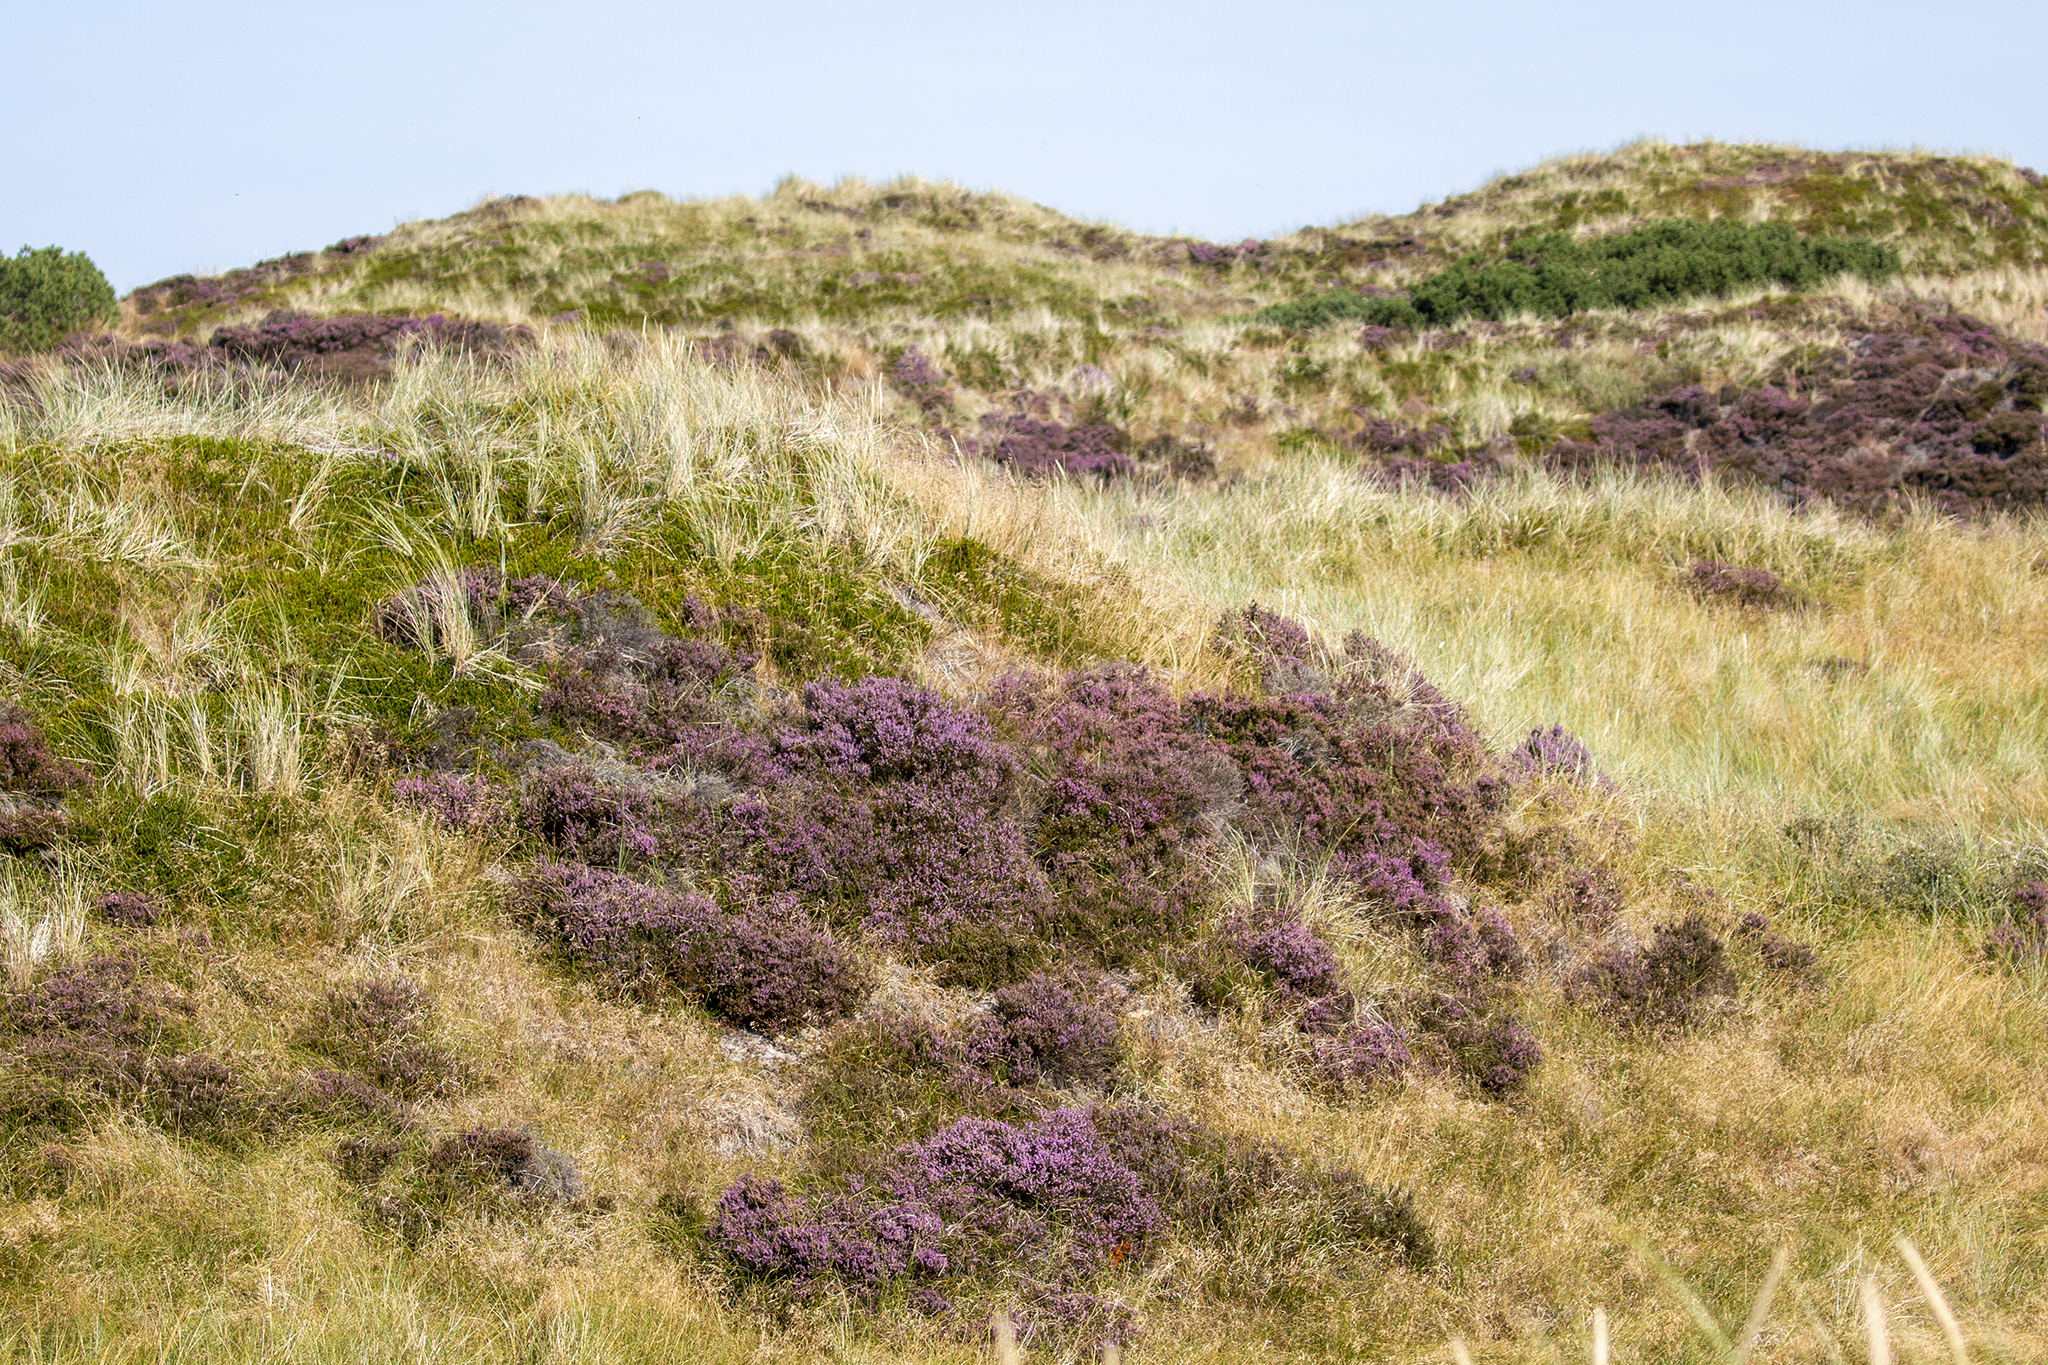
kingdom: Plantae
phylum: Tracheophyta
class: Magnoliopsida
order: Ericales
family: Ericaceae
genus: Calluna
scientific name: Calluna vulgaris
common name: Heather
